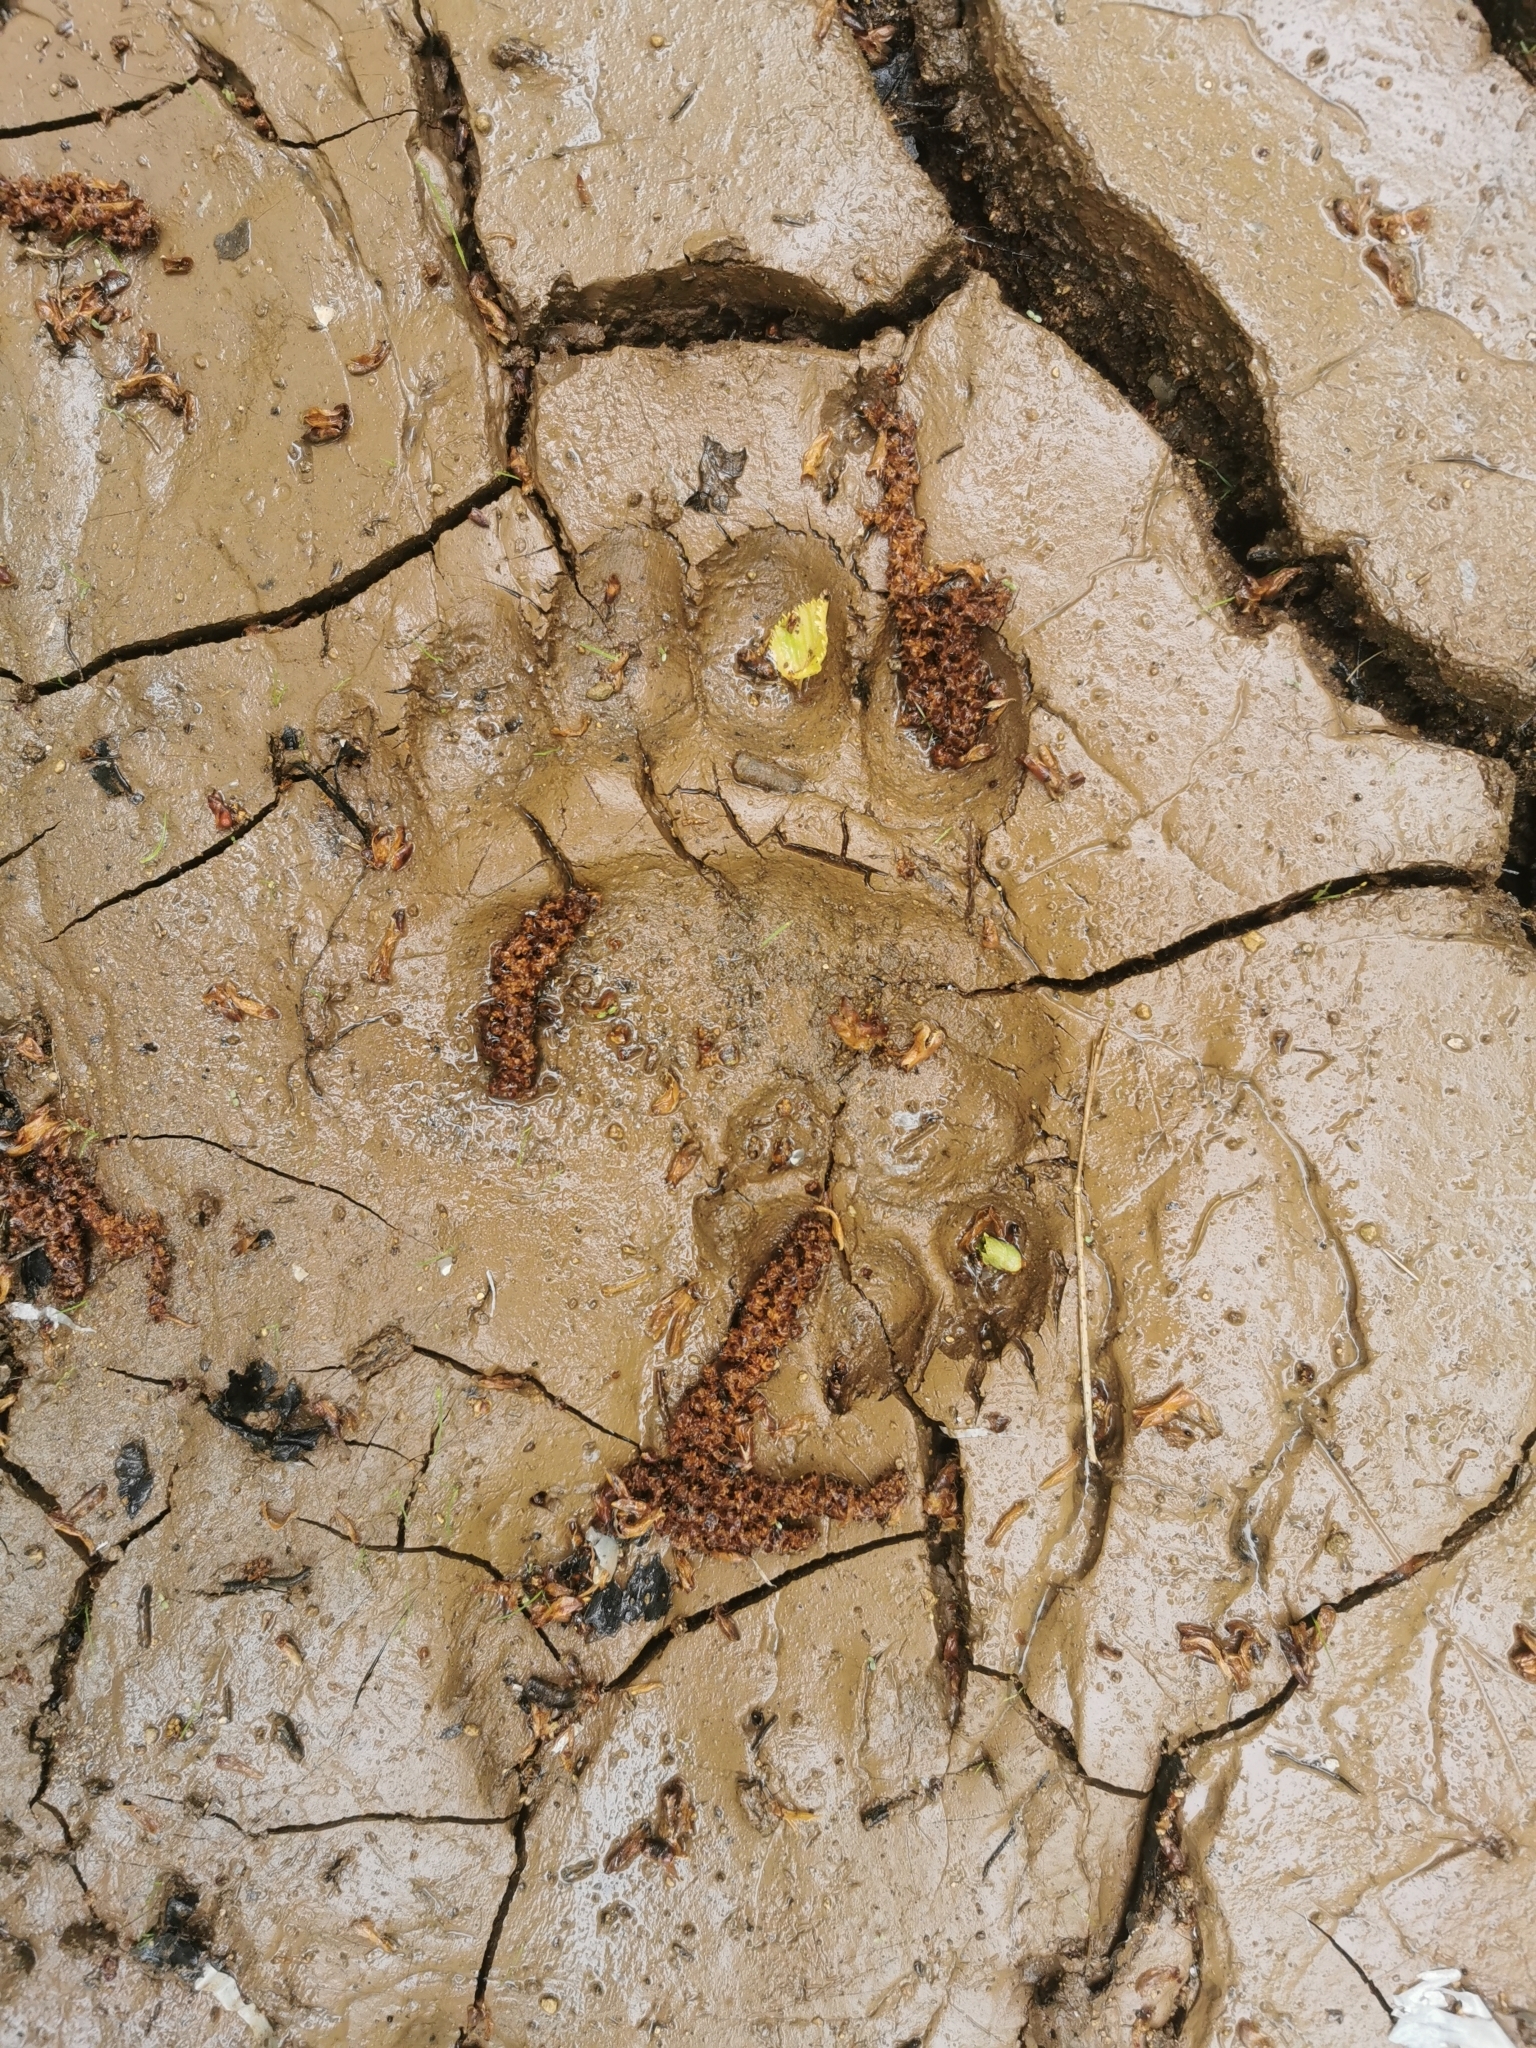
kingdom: Animalia
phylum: Chordata
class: Mammalia
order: Carnivora
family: Ursidae
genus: Ursus
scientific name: Ursus arctos
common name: Brown bear
